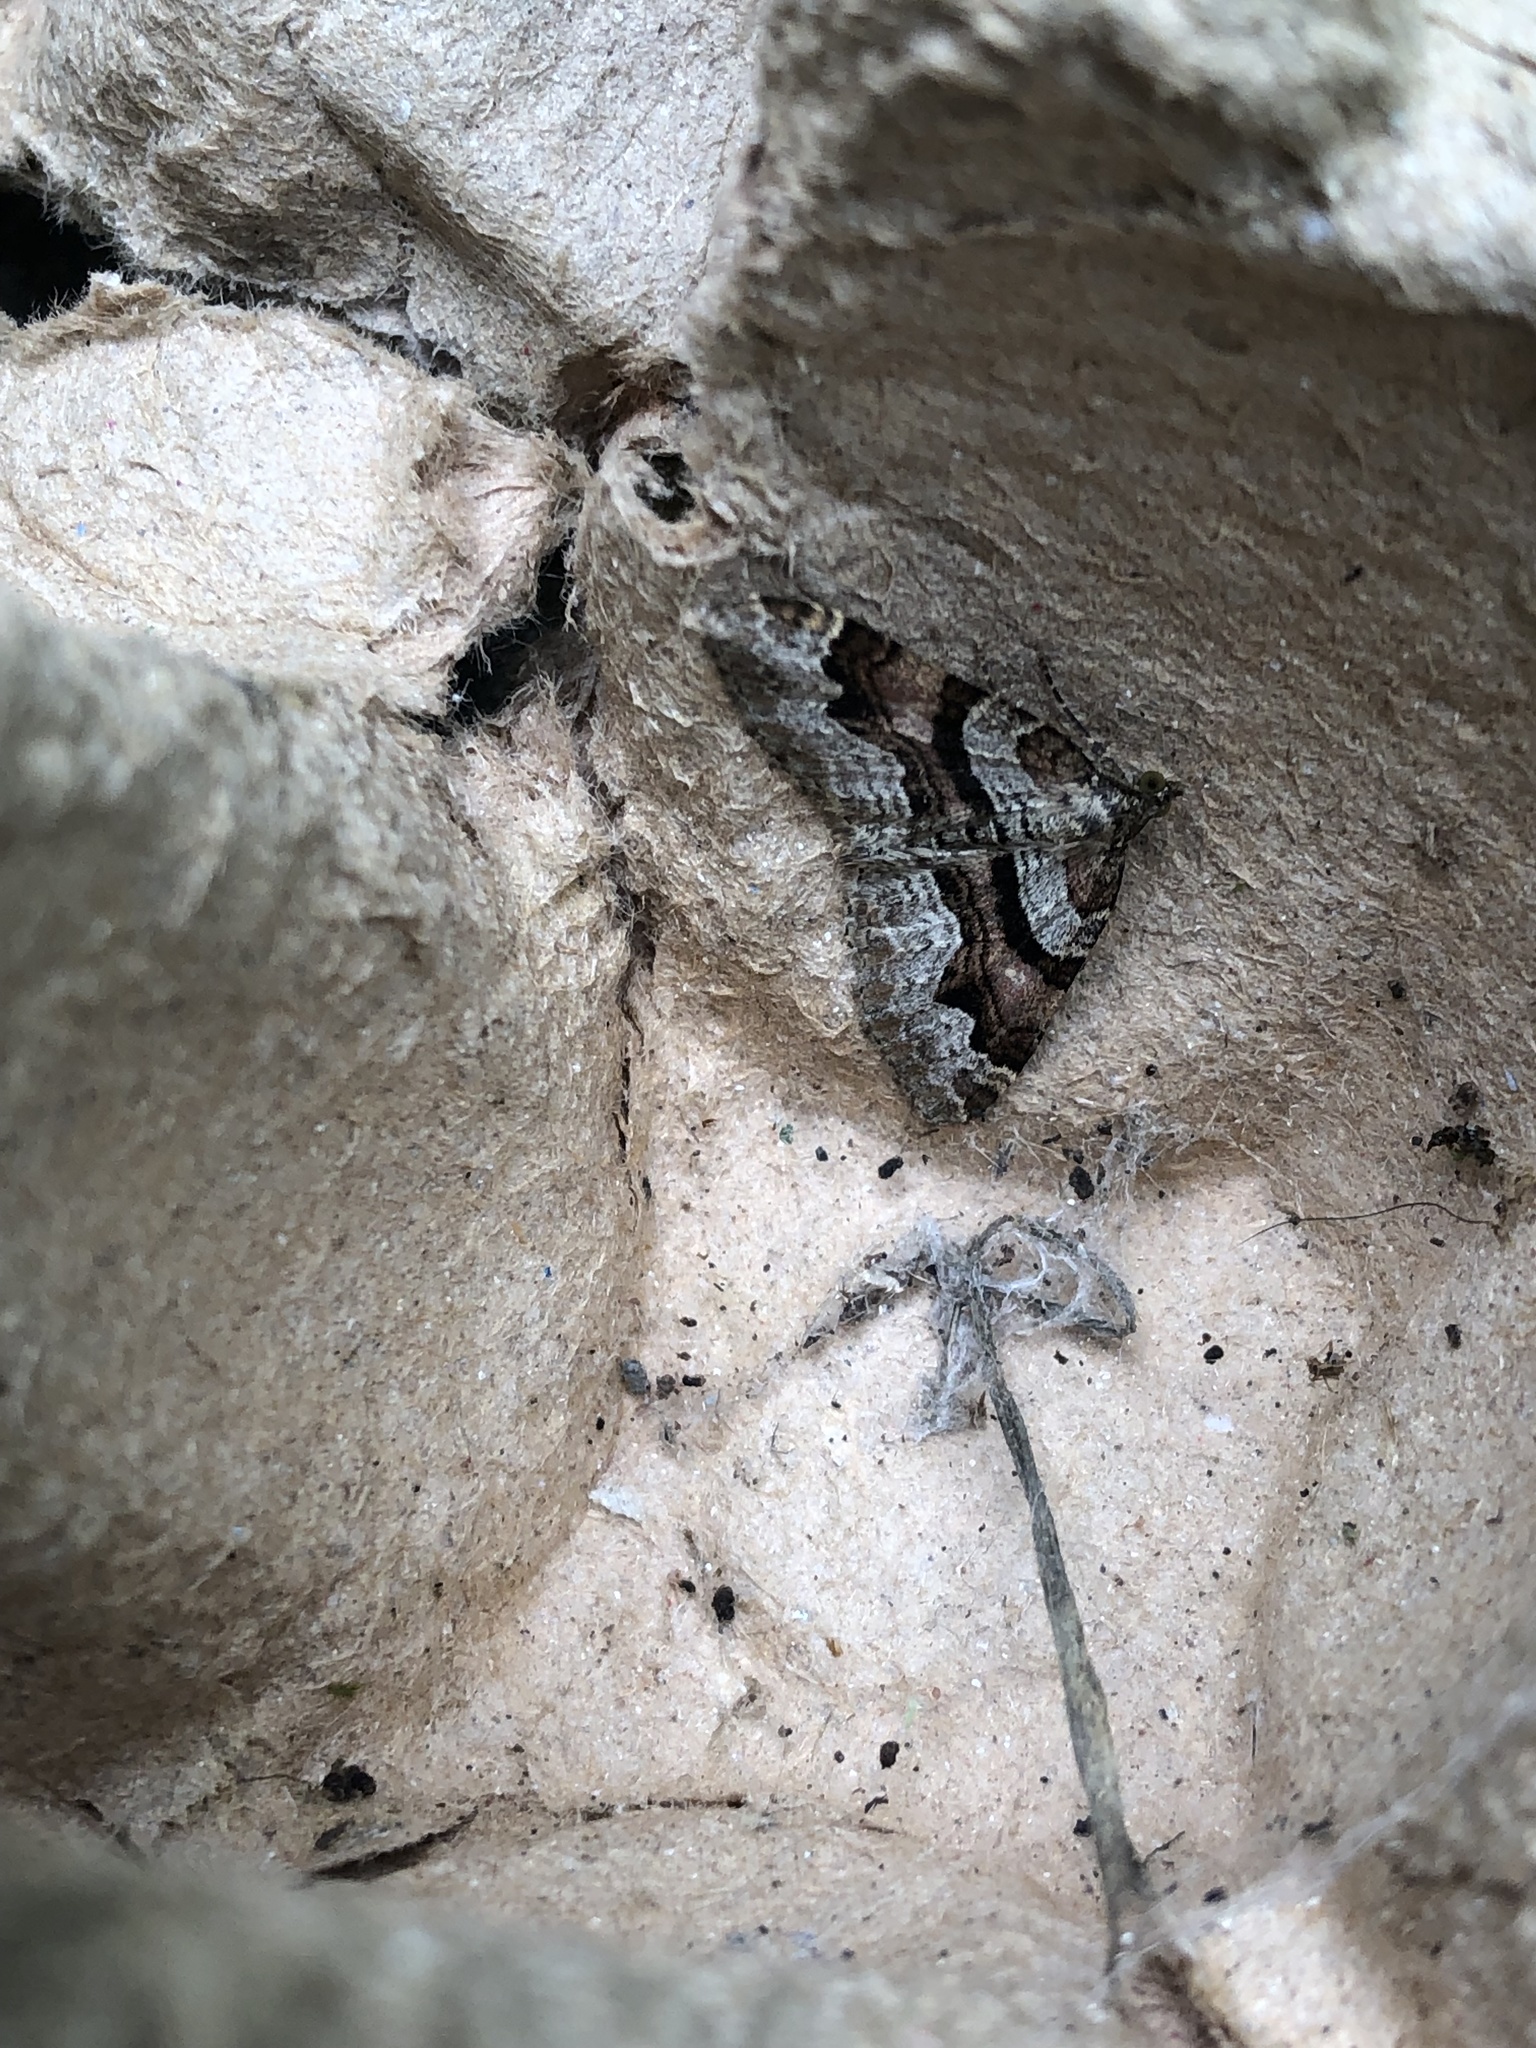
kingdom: Animalia
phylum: Arthropoda
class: Insecta
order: Lepidoptera
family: Geometridae
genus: Xanthorhoe
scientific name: Xanthorhoe designata
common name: Flame carpet
